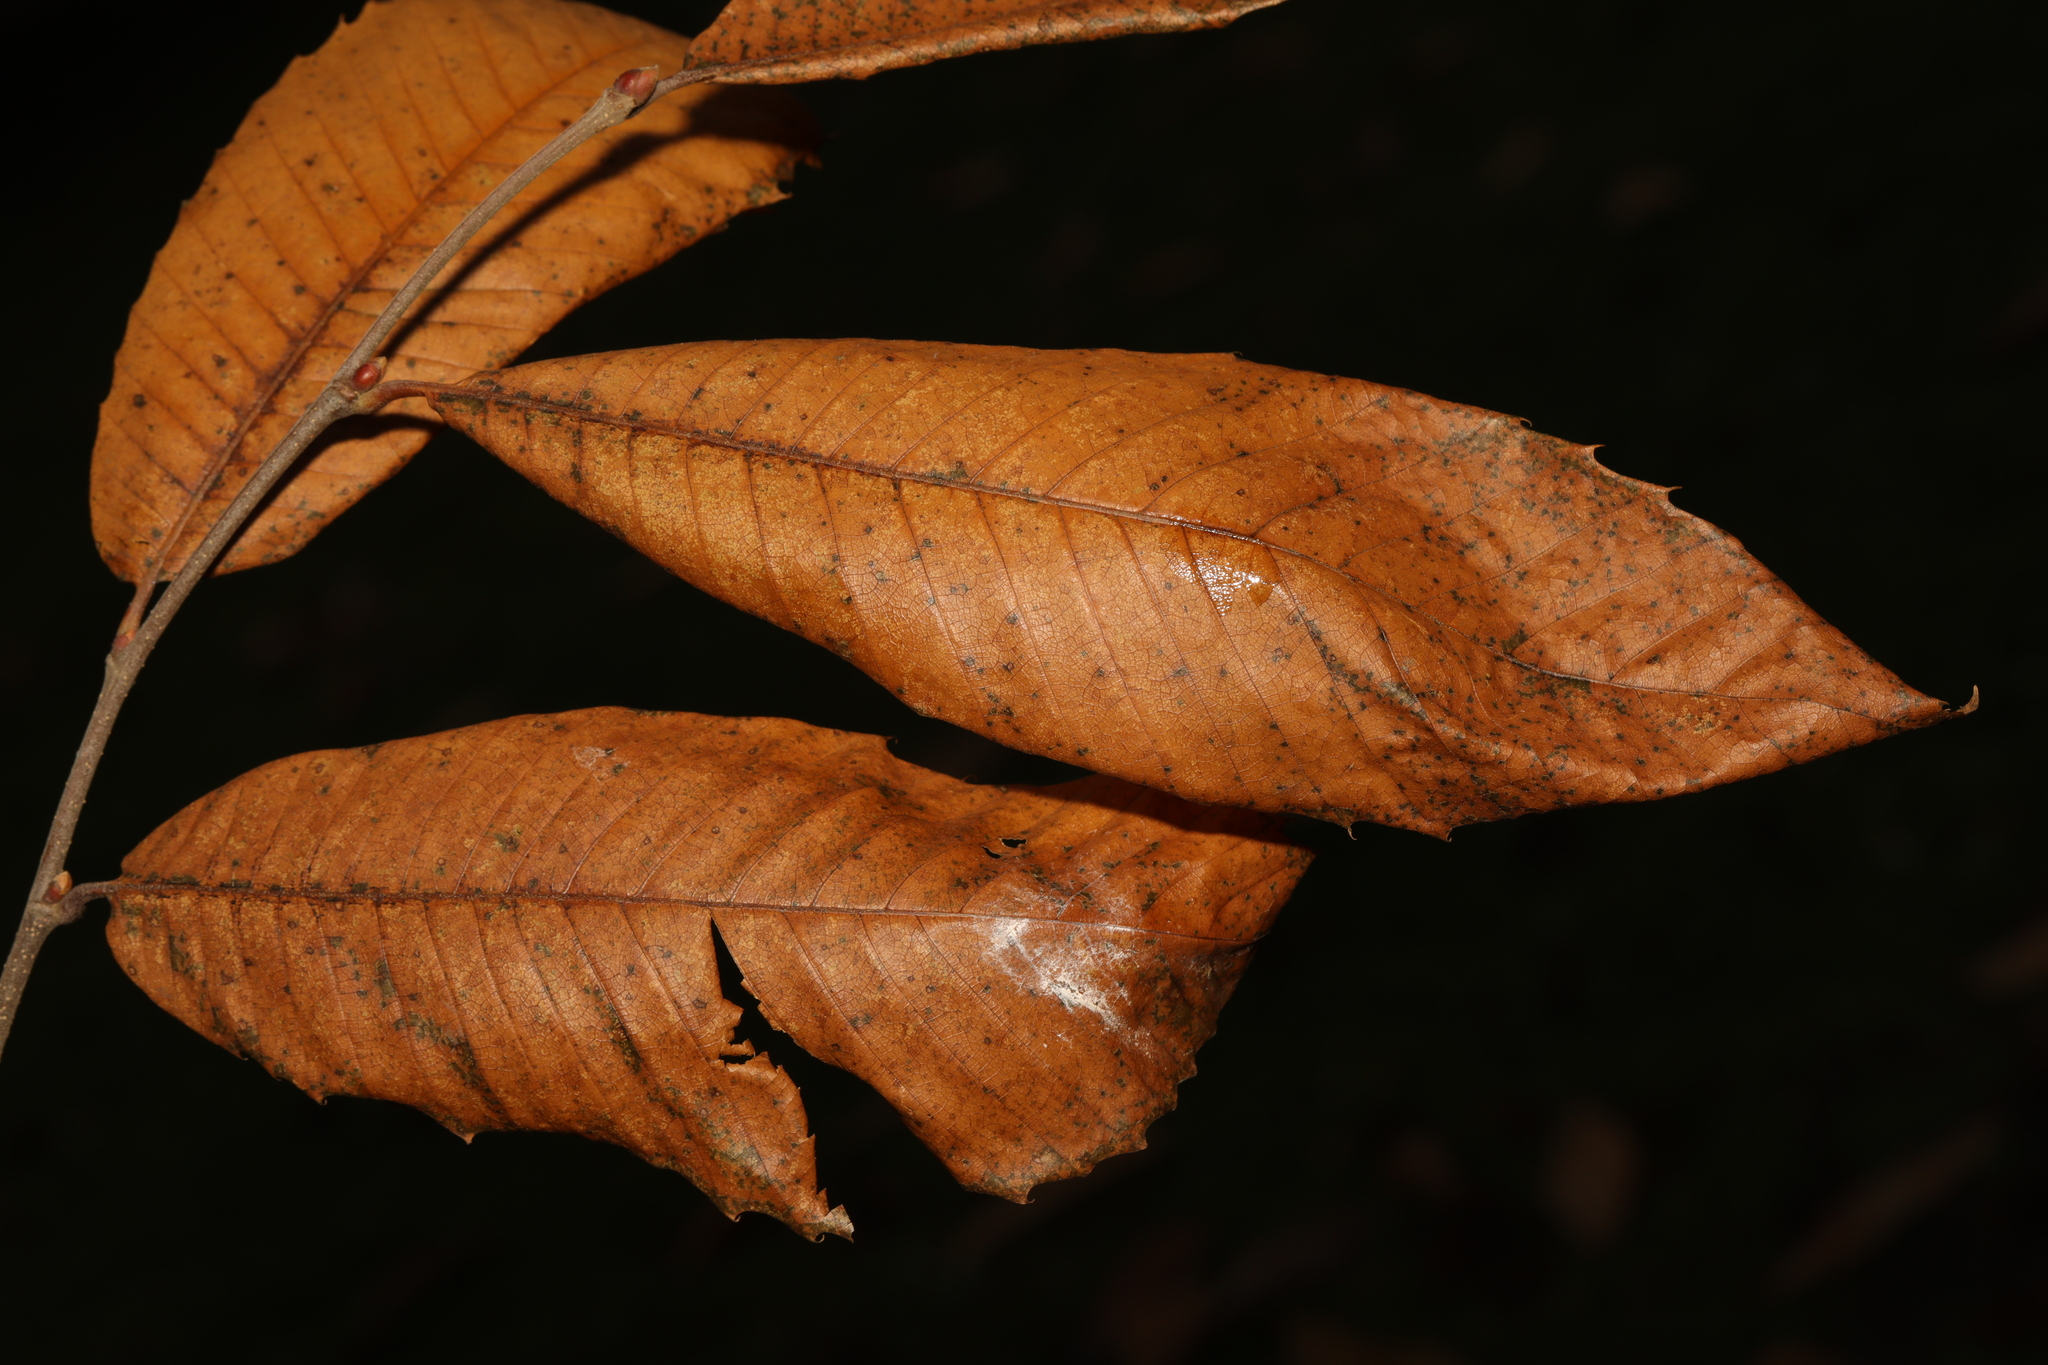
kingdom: Plantae
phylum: Tracheophyta
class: Magnoliopsida
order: Fagales
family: Fagaceae
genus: Castanea
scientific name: Castanea sativa
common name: Sweet chestnut
